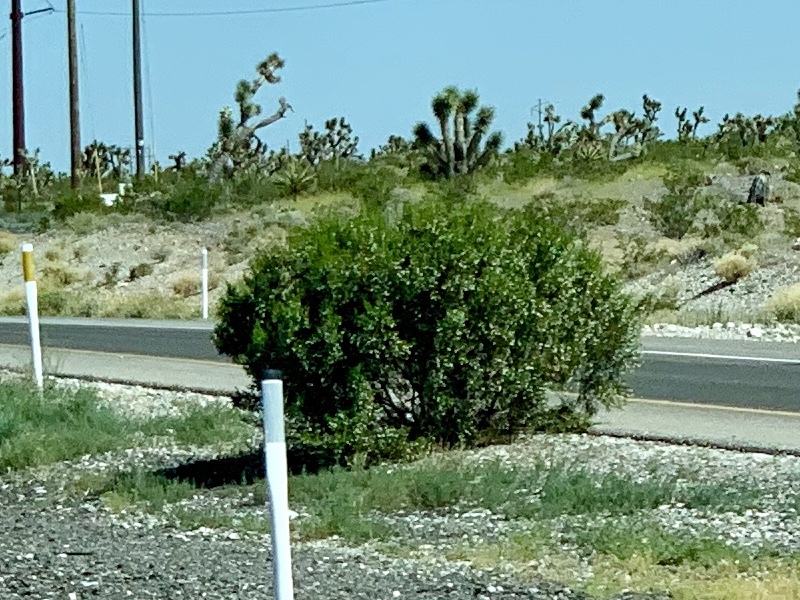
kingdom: Plantae
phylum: Tracheophyta
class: Magnoliopsida
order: Zygophyllales
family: Zygophyllaceae
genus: Larrea
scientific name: Larrea tridentata
